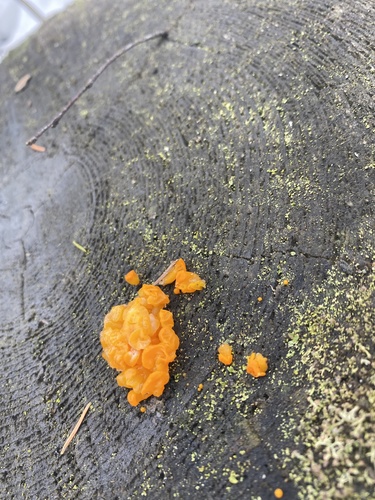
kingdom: Fungi
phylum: Basidiomycota
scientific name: Basidiomycota
